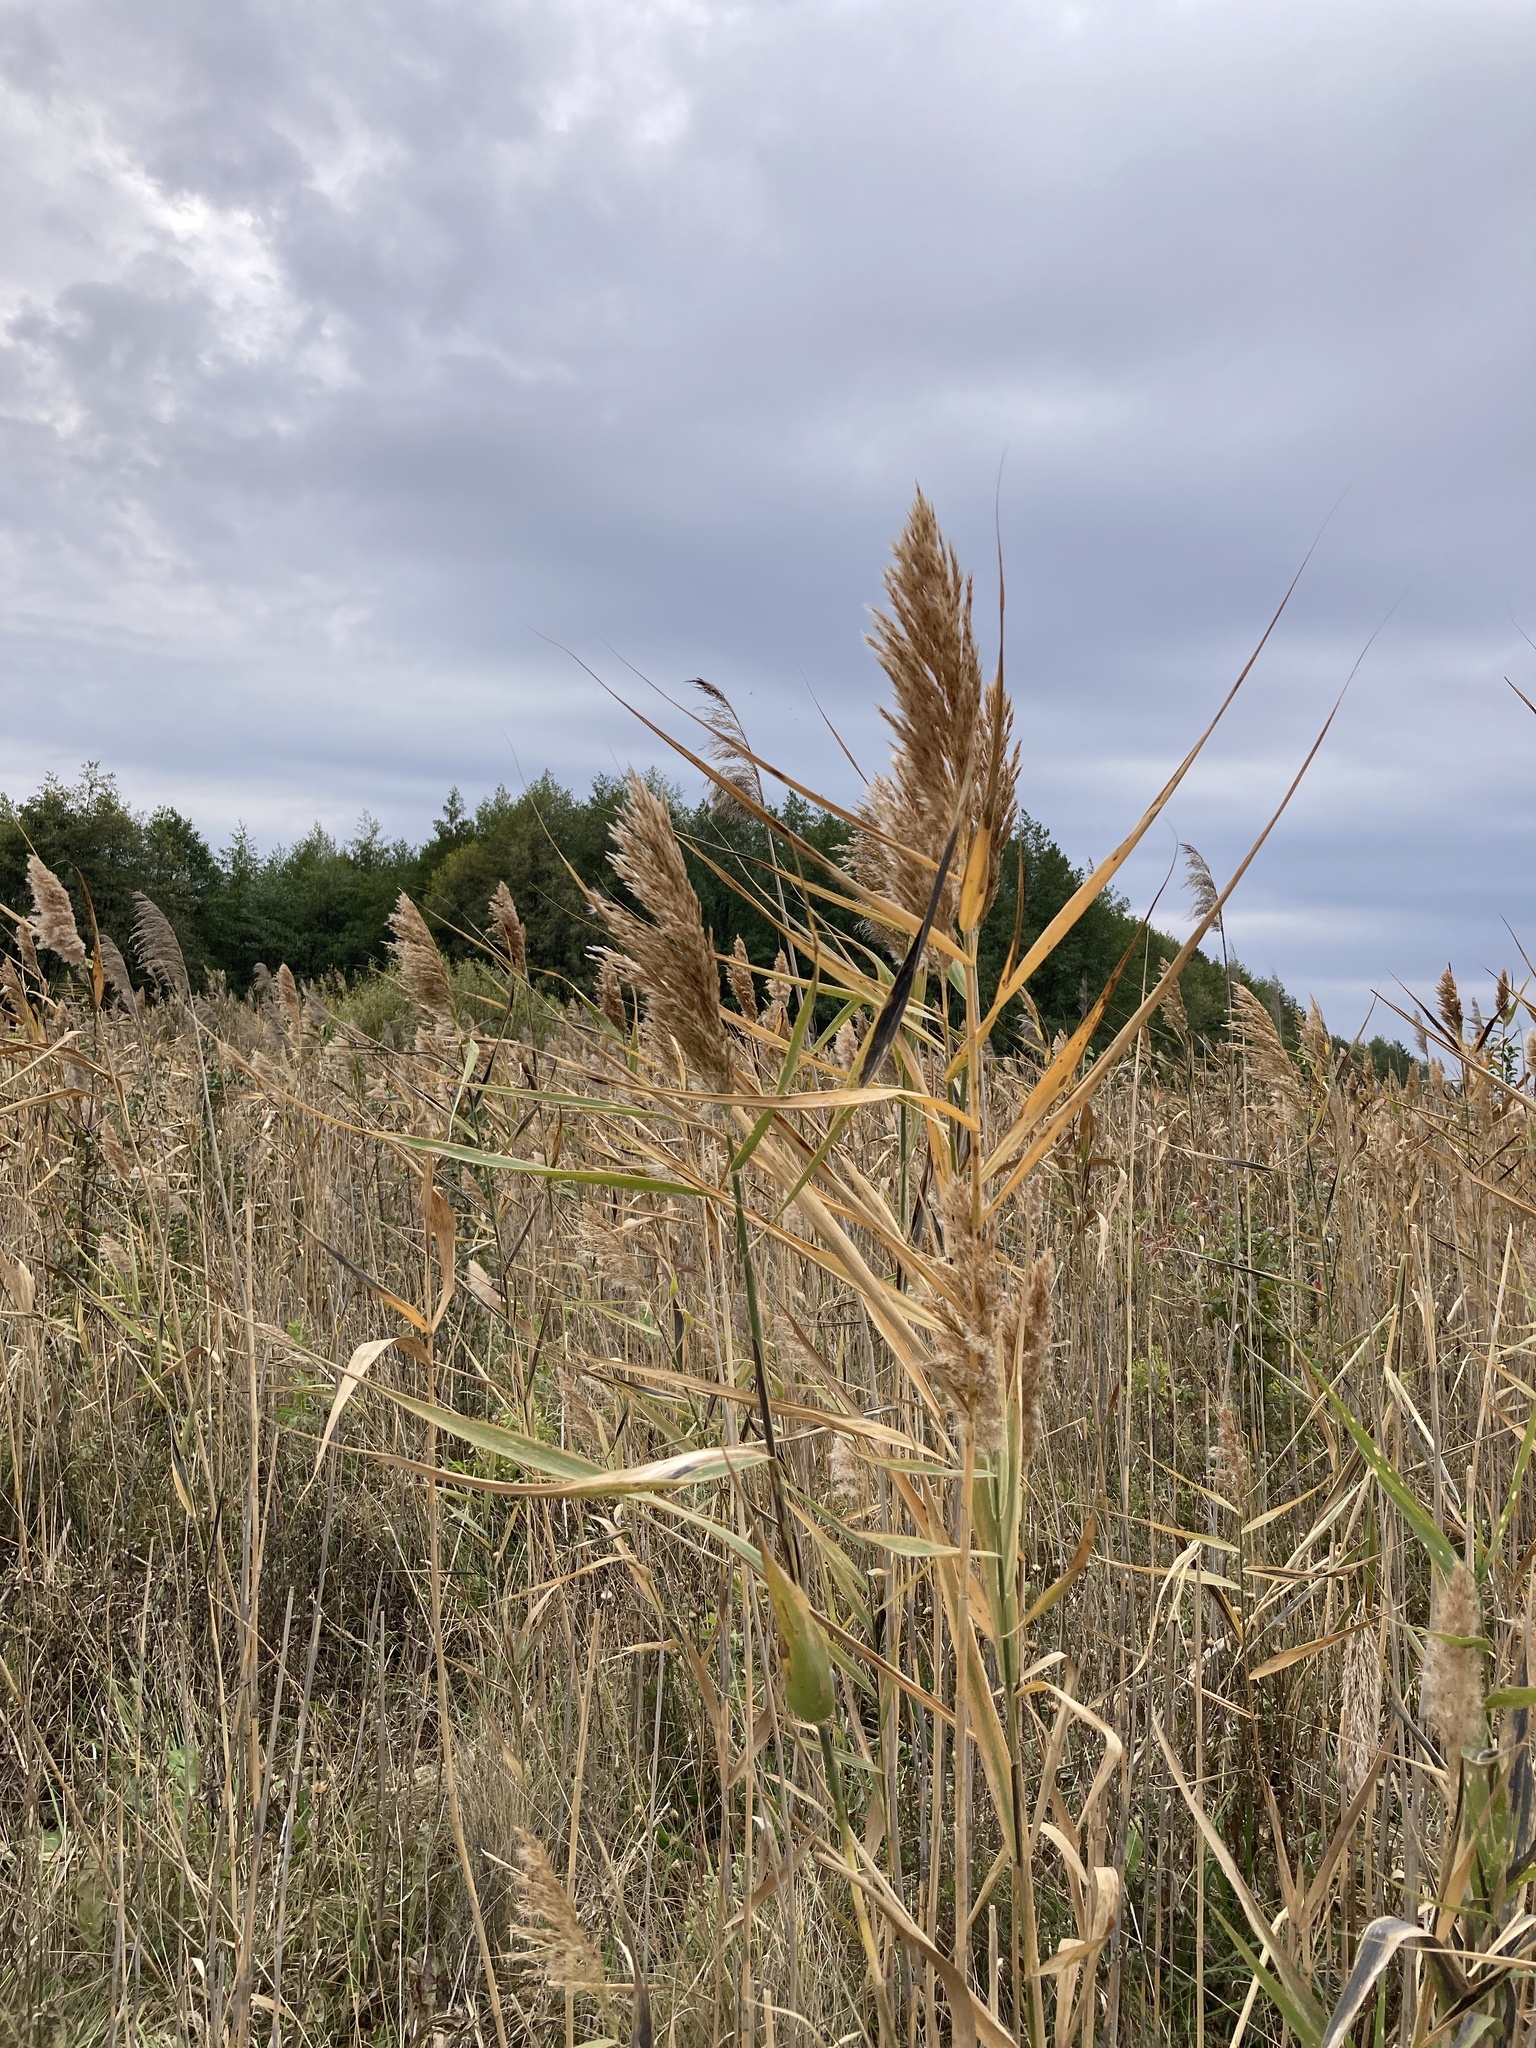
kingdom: Plantae
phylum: Tracheophyta
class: Liliopsida
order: Poales
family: Poaceae
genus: Phragmites
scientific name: Phragmites australis
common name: Common reed
